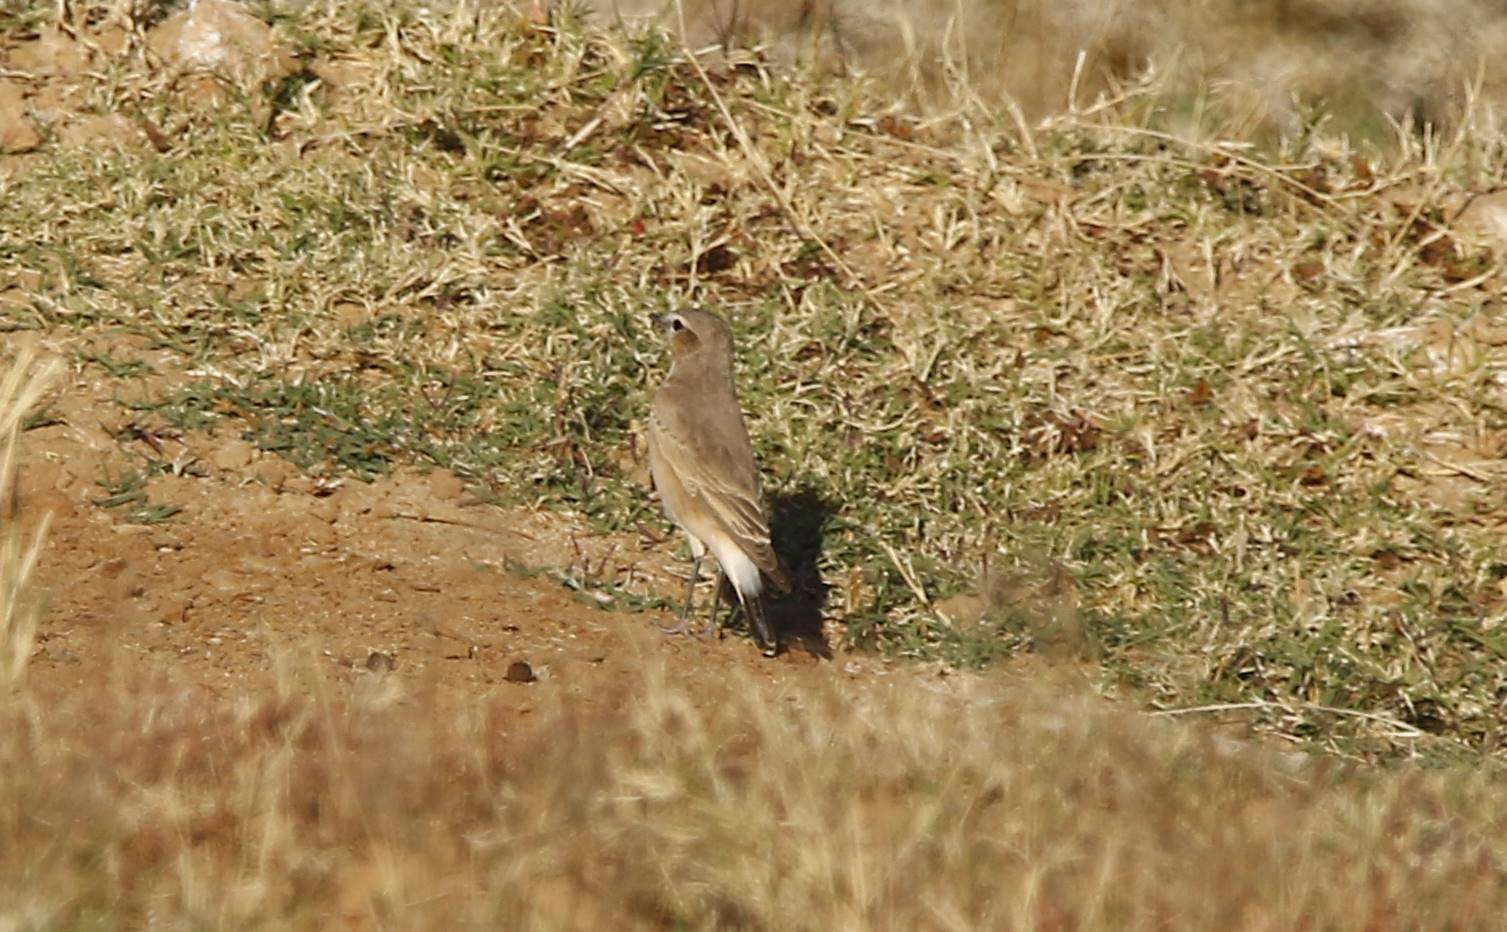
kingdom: Animalia
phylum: Chordata
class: Aves
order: Passeriformes
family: Muscicapidae
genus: Oenanthe
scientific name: Oenanthe isabellina
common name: Isabelline wheatear
